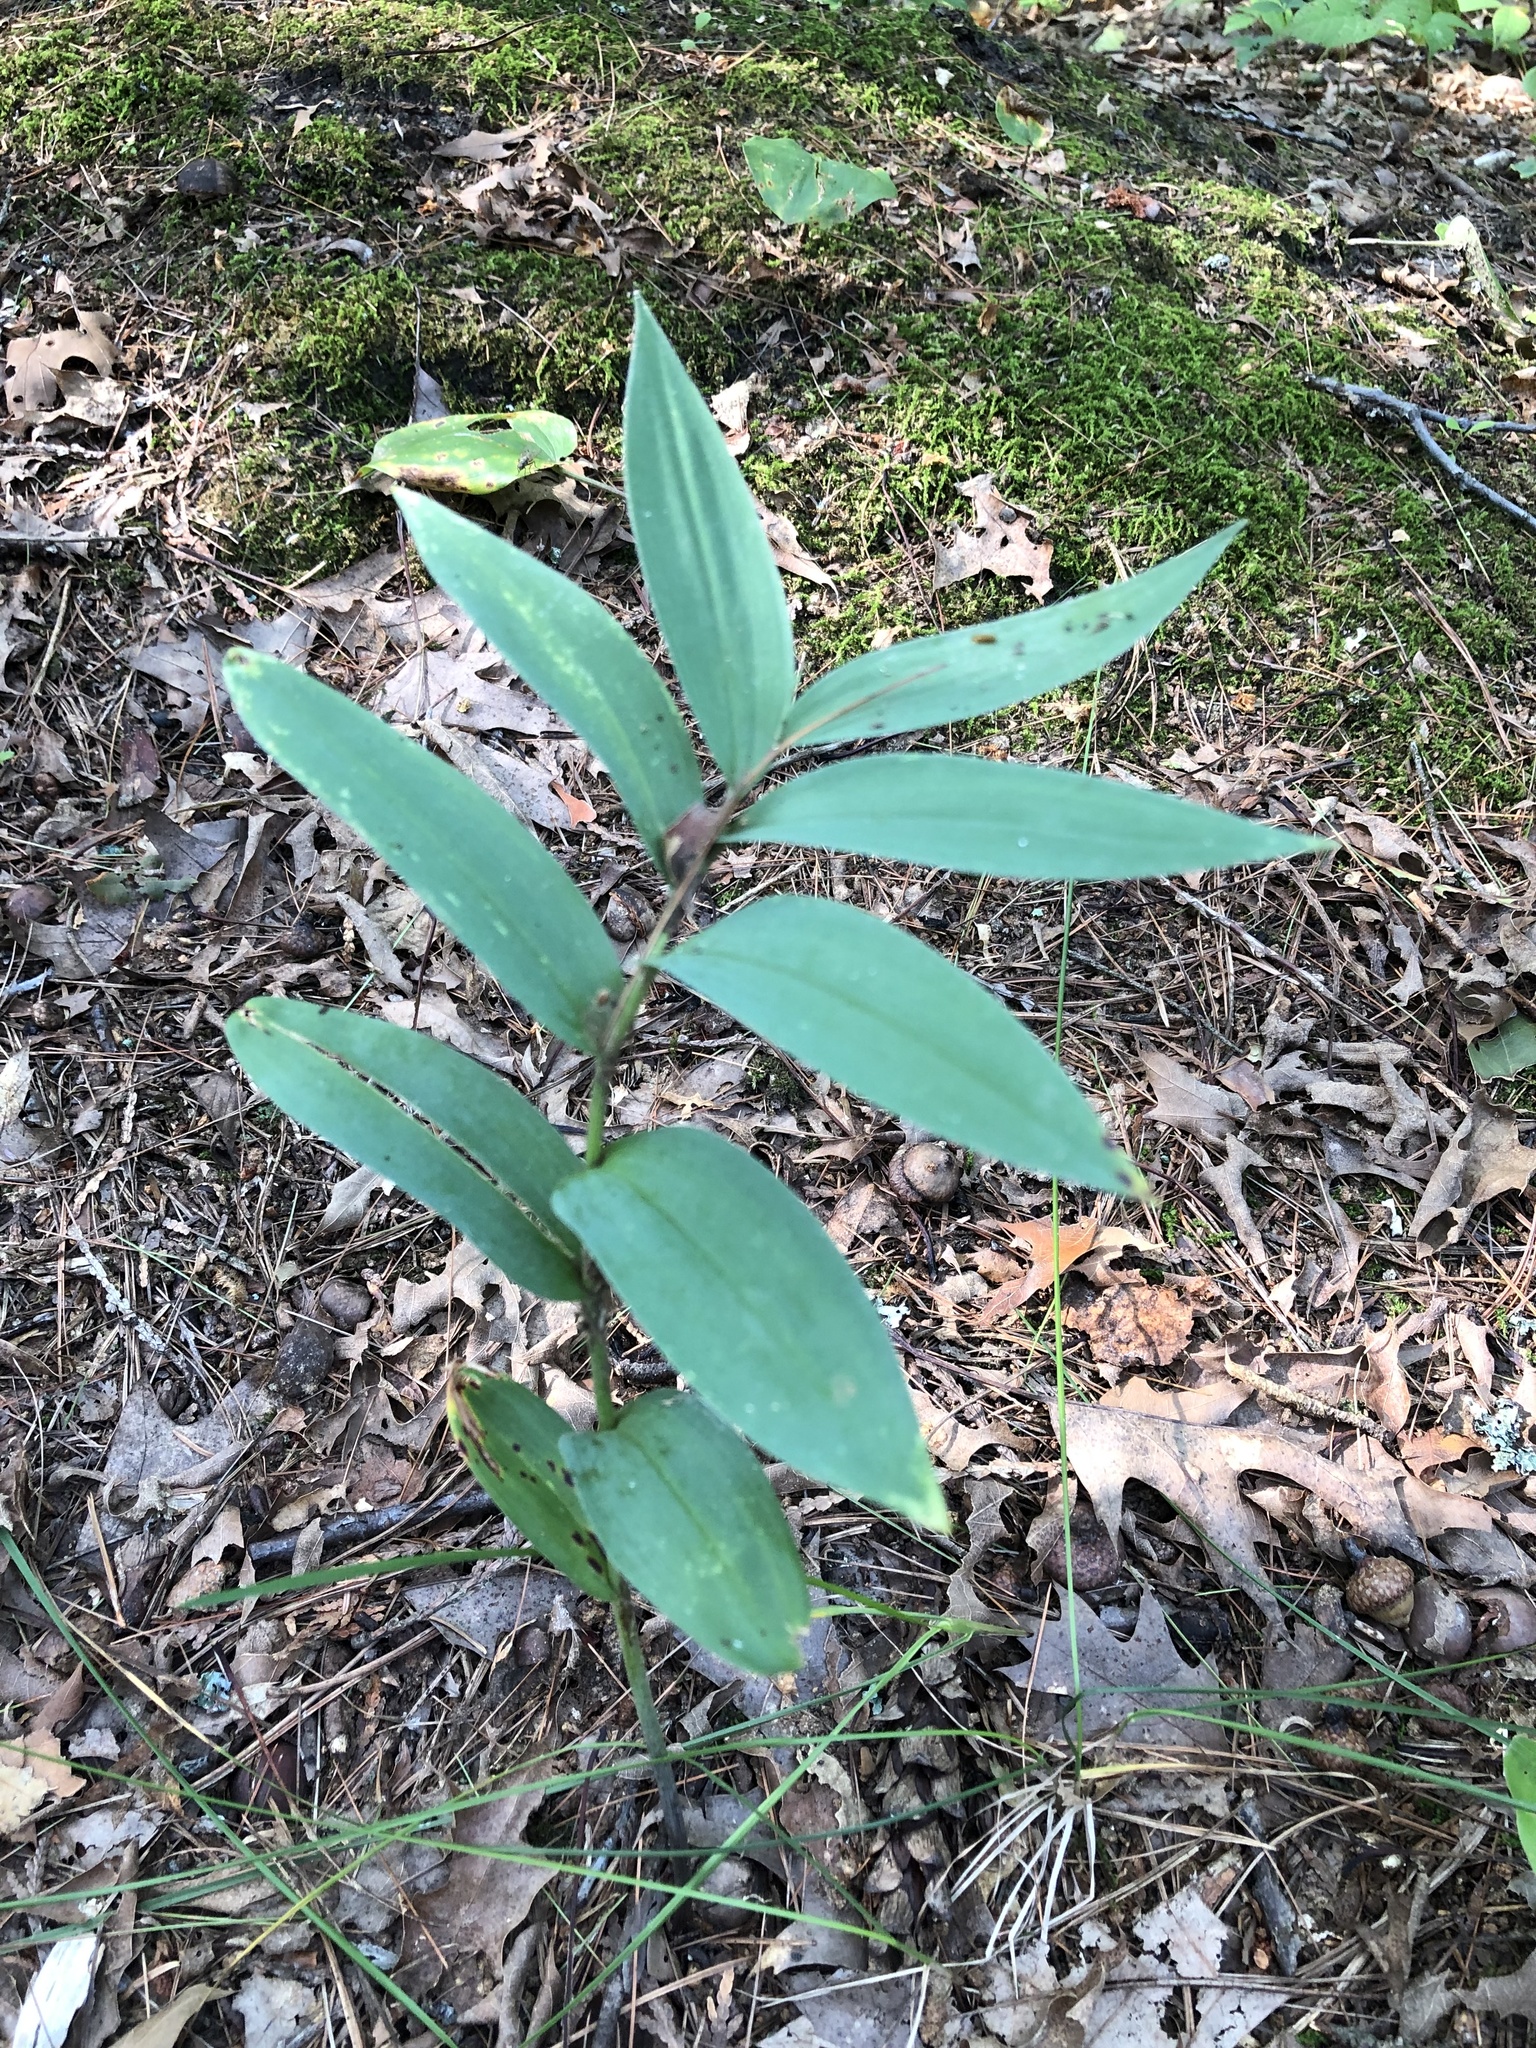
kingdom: Plantae
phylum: Tracheophyta
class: Liliopsida
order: Asparagales
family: Asparagaceae
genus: Maianthemum
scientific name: Maianthemum stellatum
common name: Little false solomon's seal
